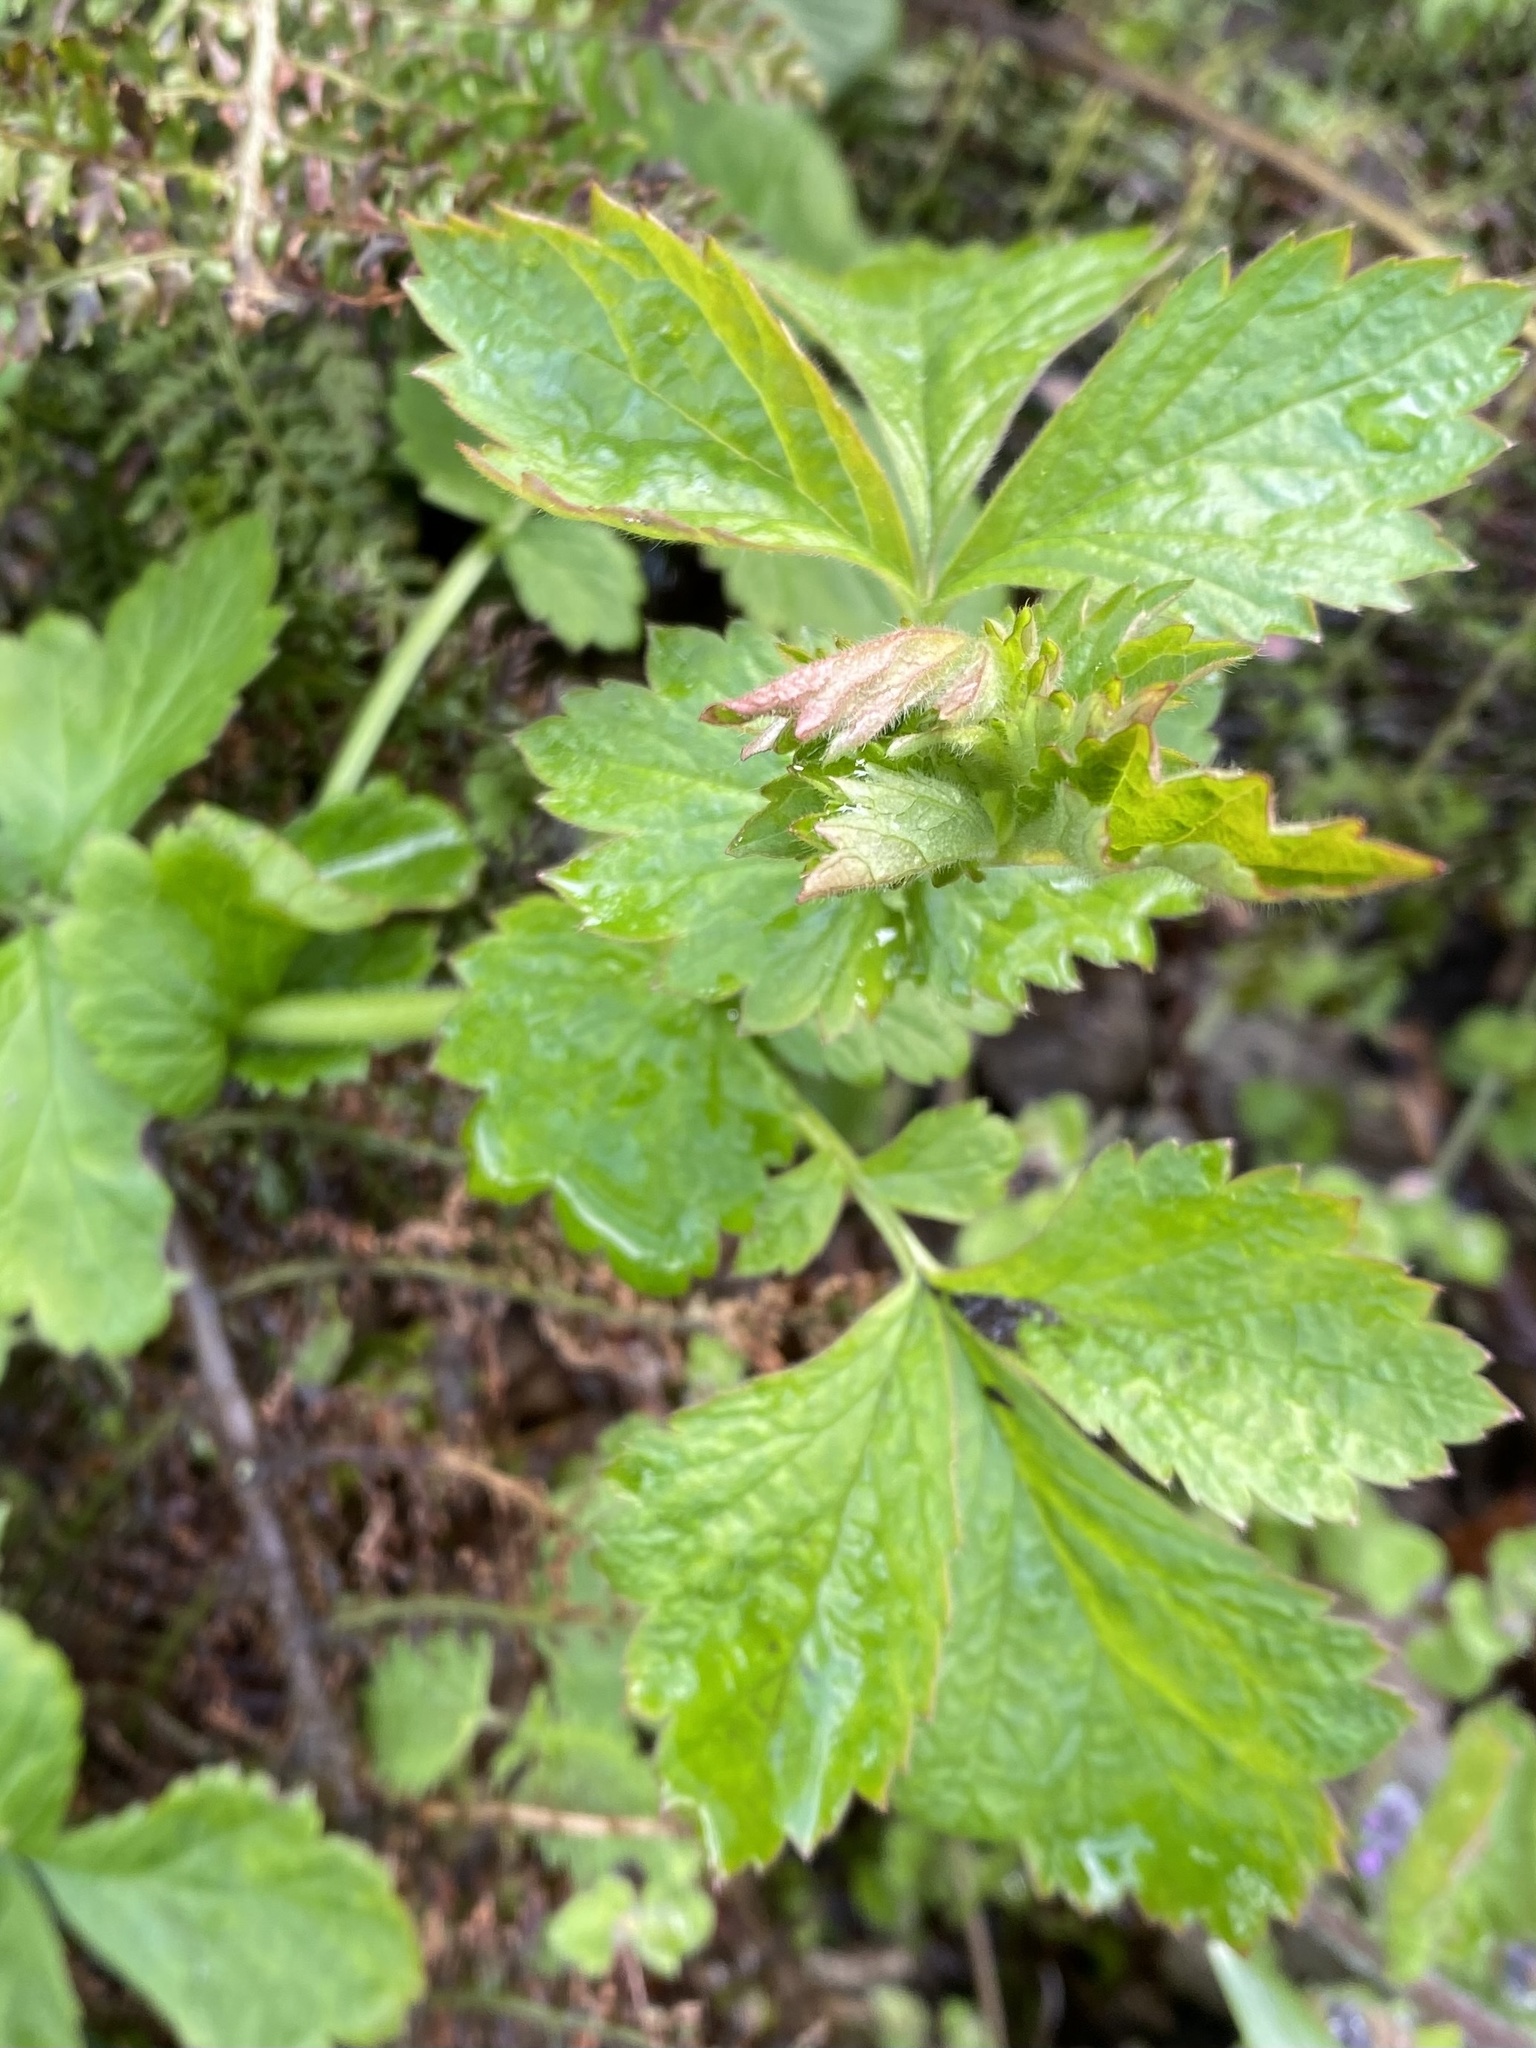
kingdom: Plantae
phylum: Tracheophyta
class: Magnoliopsida
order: Rosales
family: Rosaceae
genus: Geum
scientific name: Geum urbanum
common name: Wood avens
